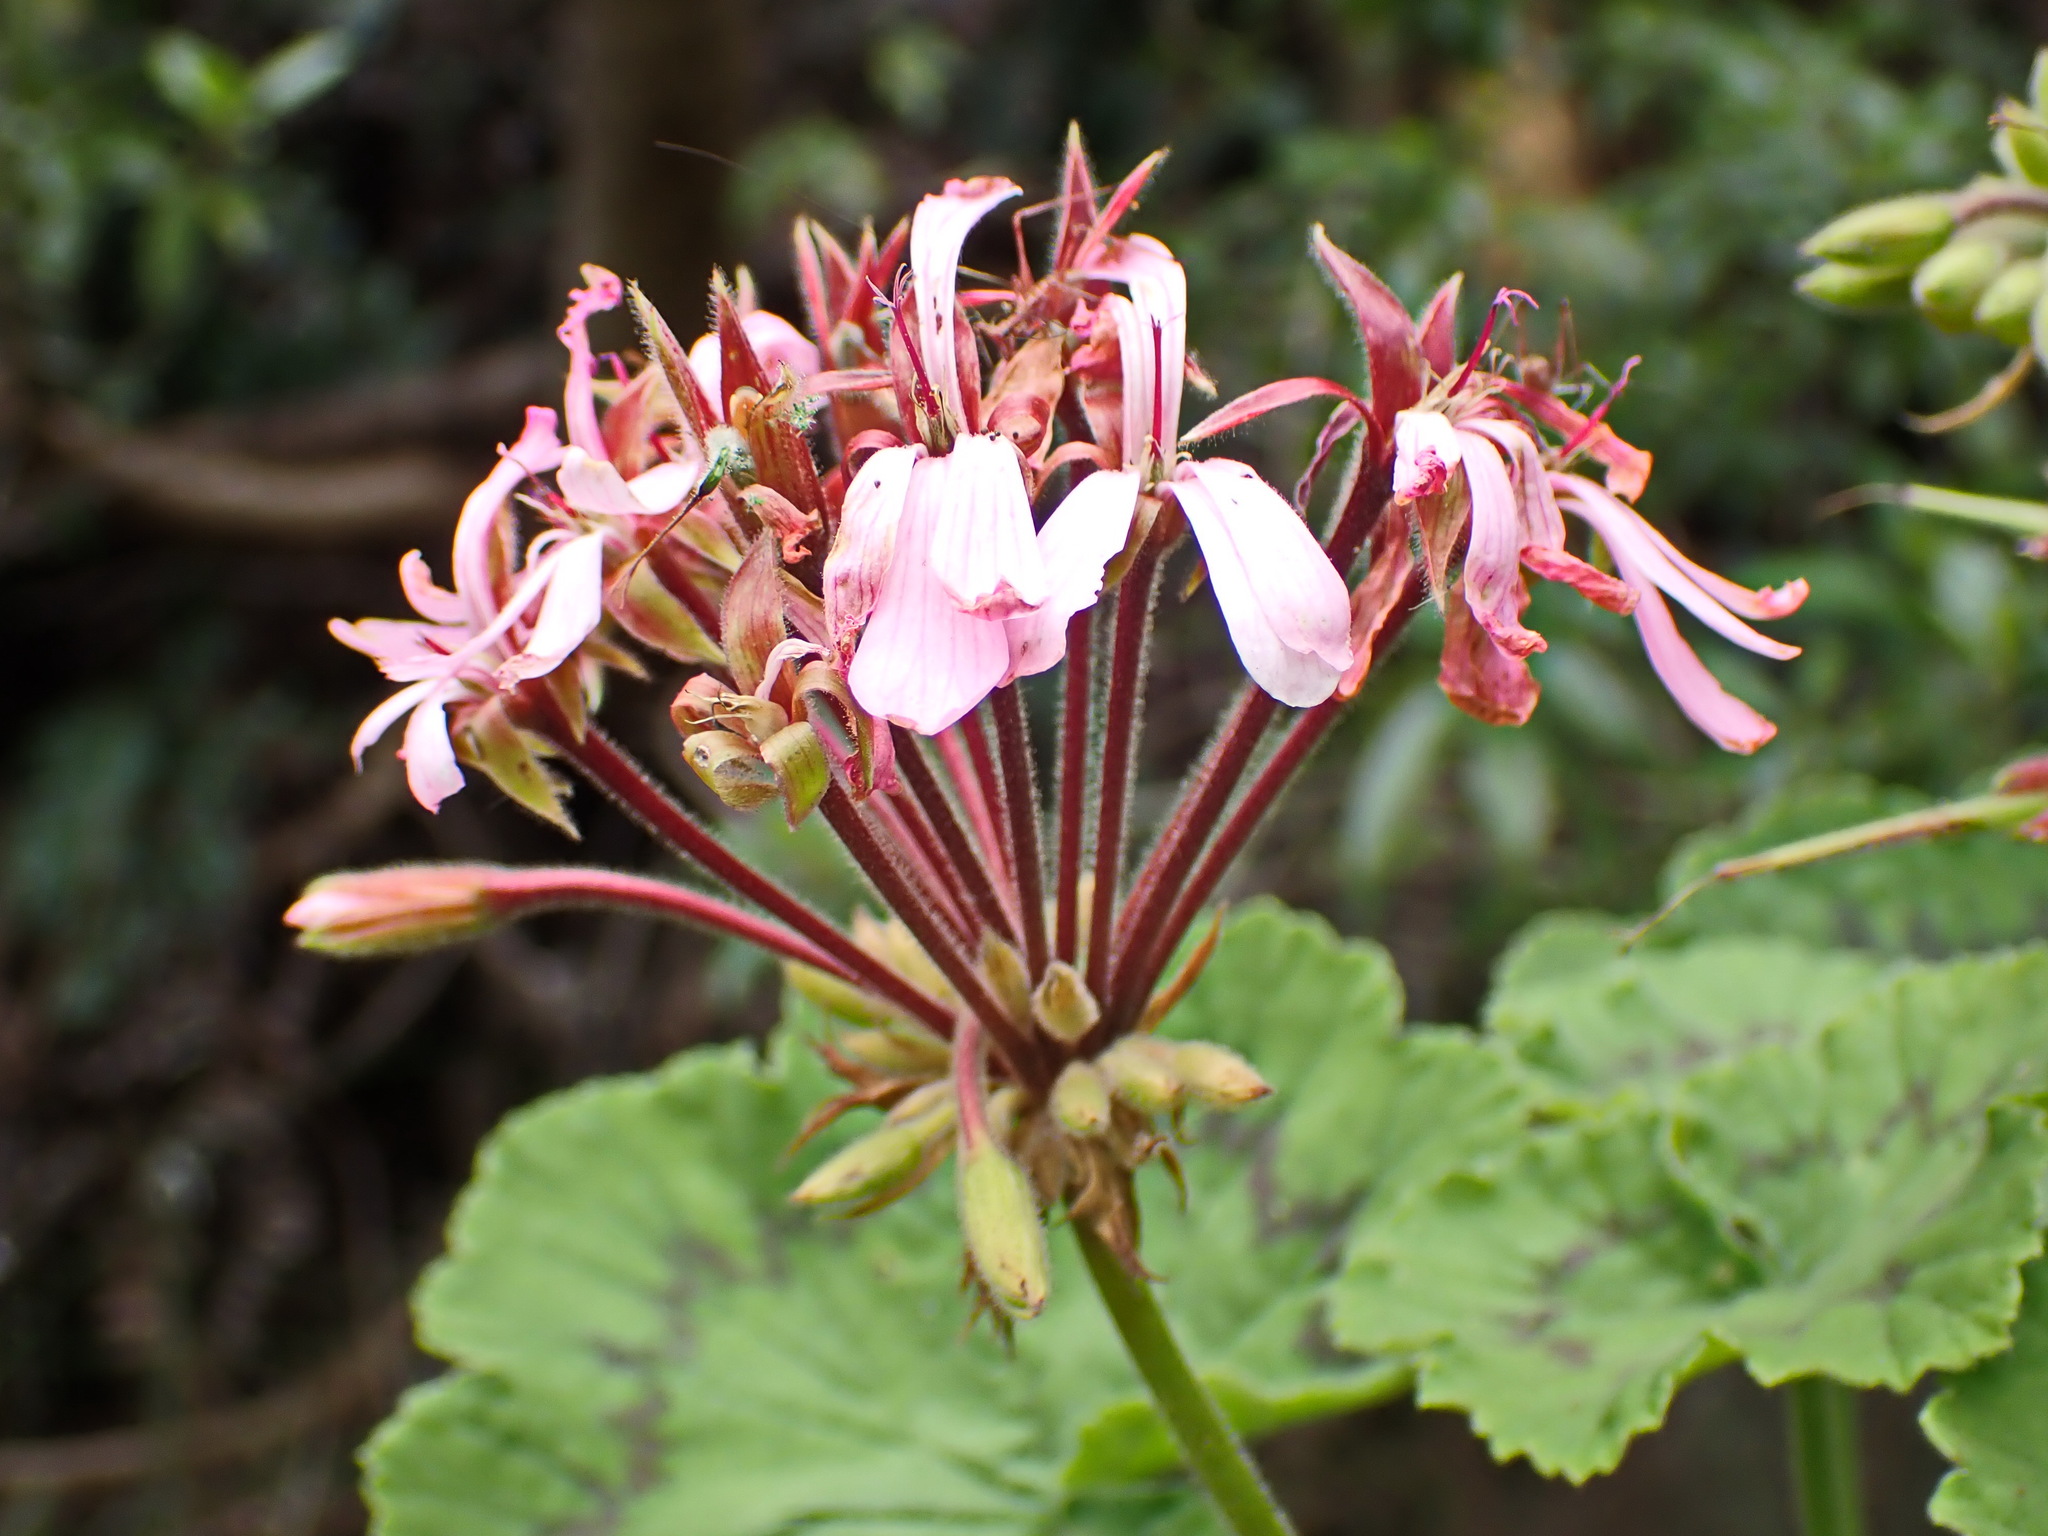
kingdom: Plantae
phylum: Tracheophyta
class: Magnoliopsida
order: Geraniales
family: Geraniaceae
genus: Pelargonium
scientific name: Pelargonium zonale
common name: Horseshoe geranium
